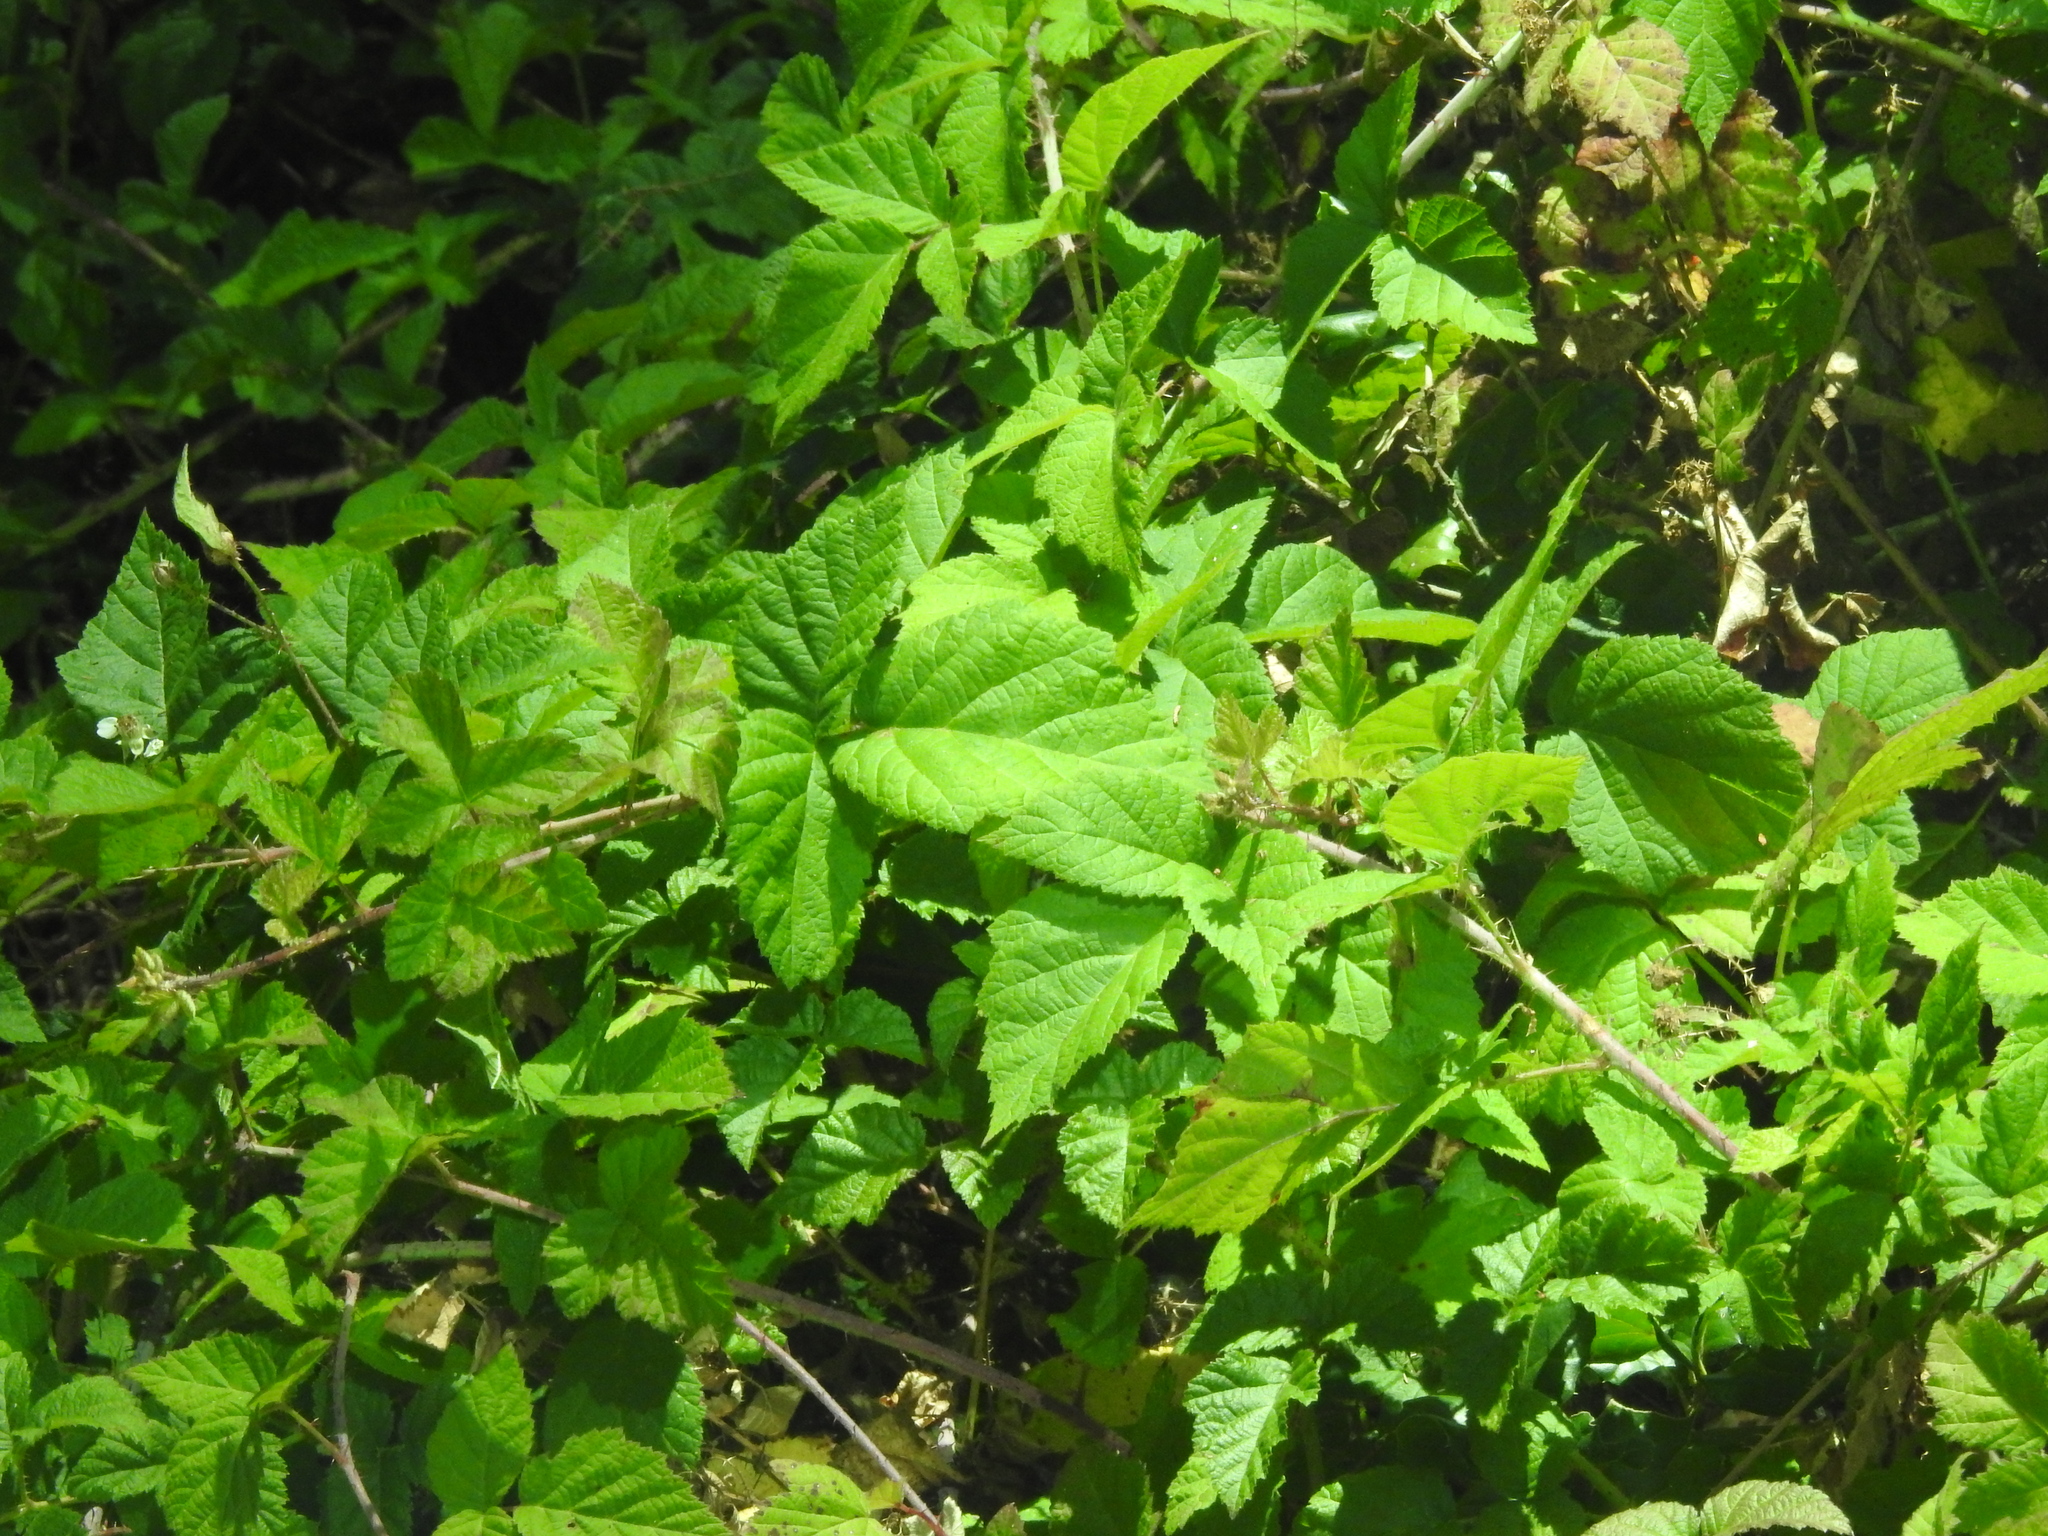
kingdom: Plantae
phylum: Tracheophyta
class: Magnoliopsida
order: Rosales
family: Rosaceae
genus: Rubus
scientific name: Rubus ursinus
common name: Pacific blackberry
